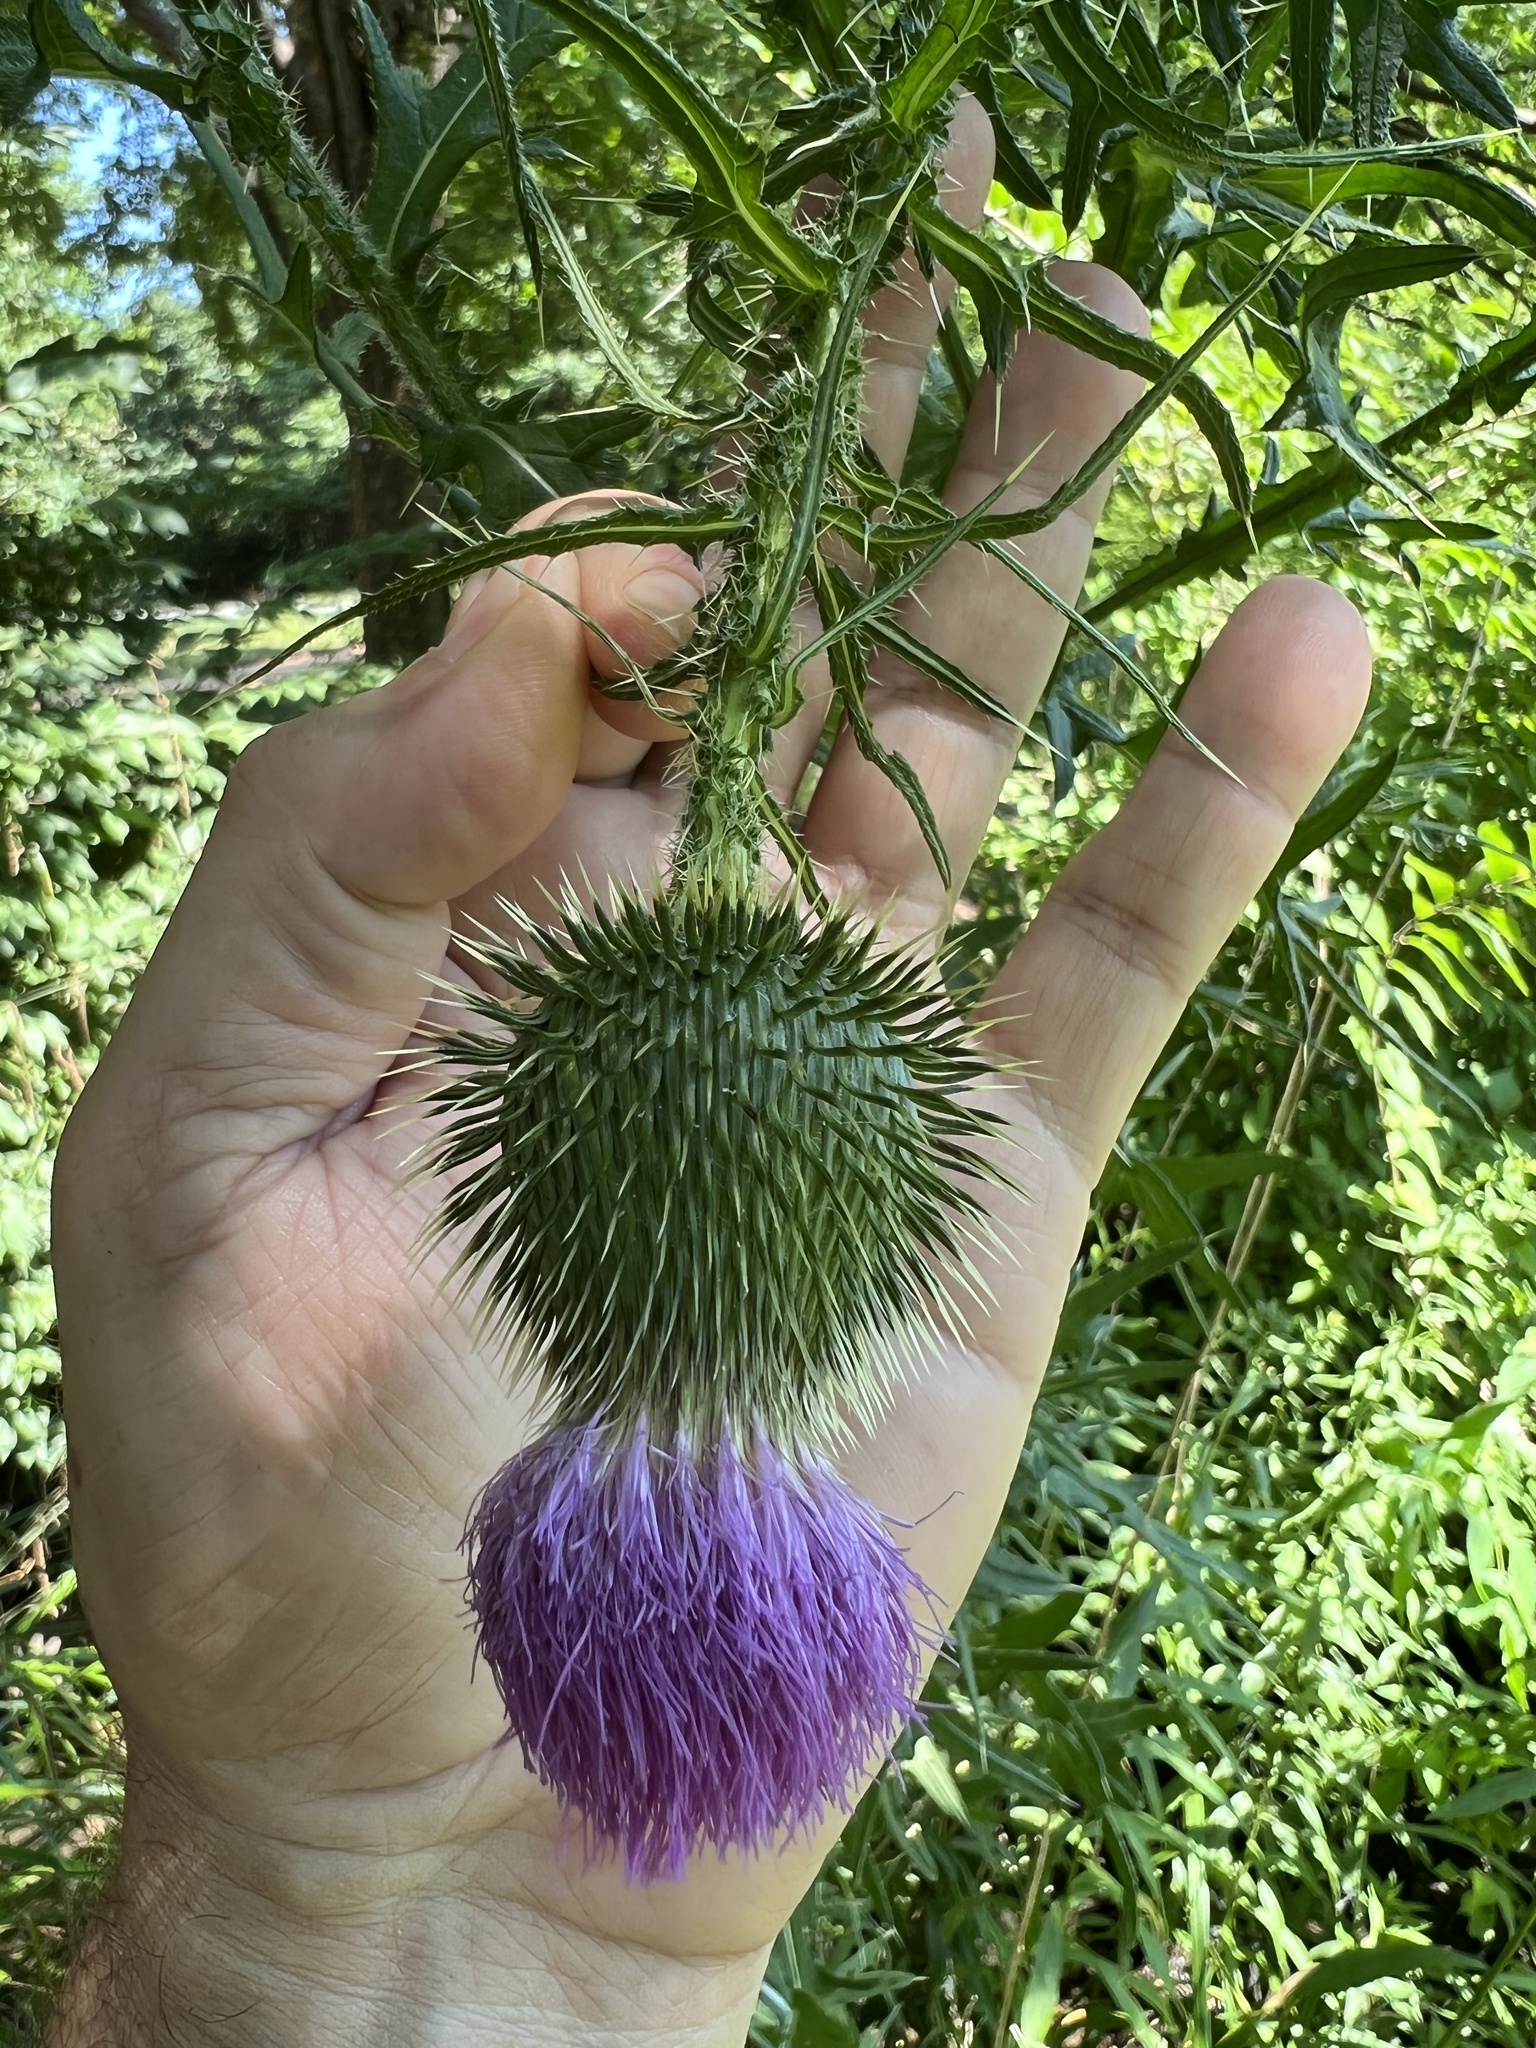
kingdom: Plantae
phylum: Tracheophyta
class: Magnoliopsida
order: Asterales
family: Asteraceae
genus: Cirsium
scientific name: Cirsium vulgare
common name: Bull thistle
